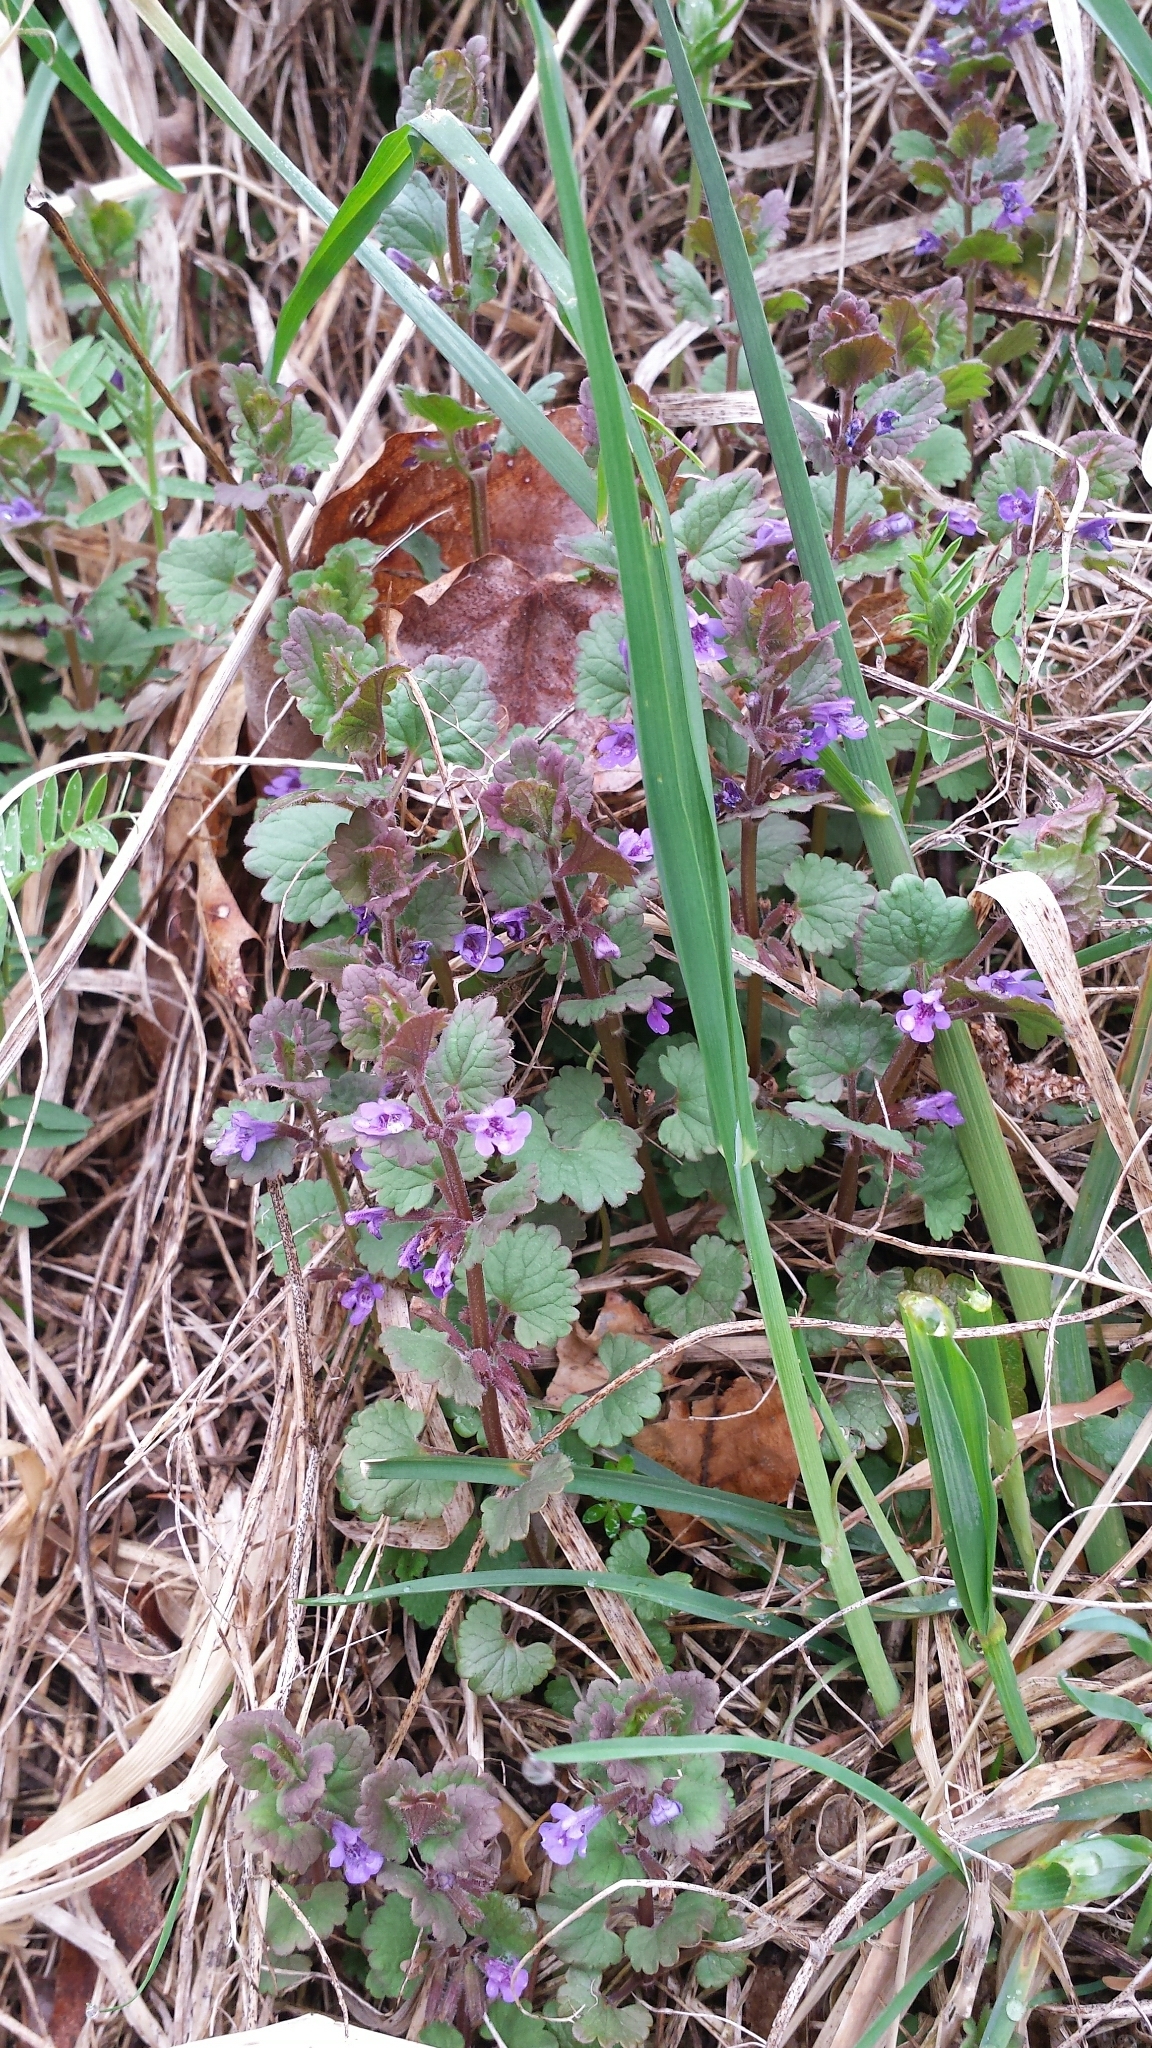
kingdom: Plantae
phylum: Tracheophyta
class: Magnoliopsida
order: Lamiales
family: Lamiaceae
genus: Glechoma
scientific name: Glechoma hederacea
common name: Ground ivy
